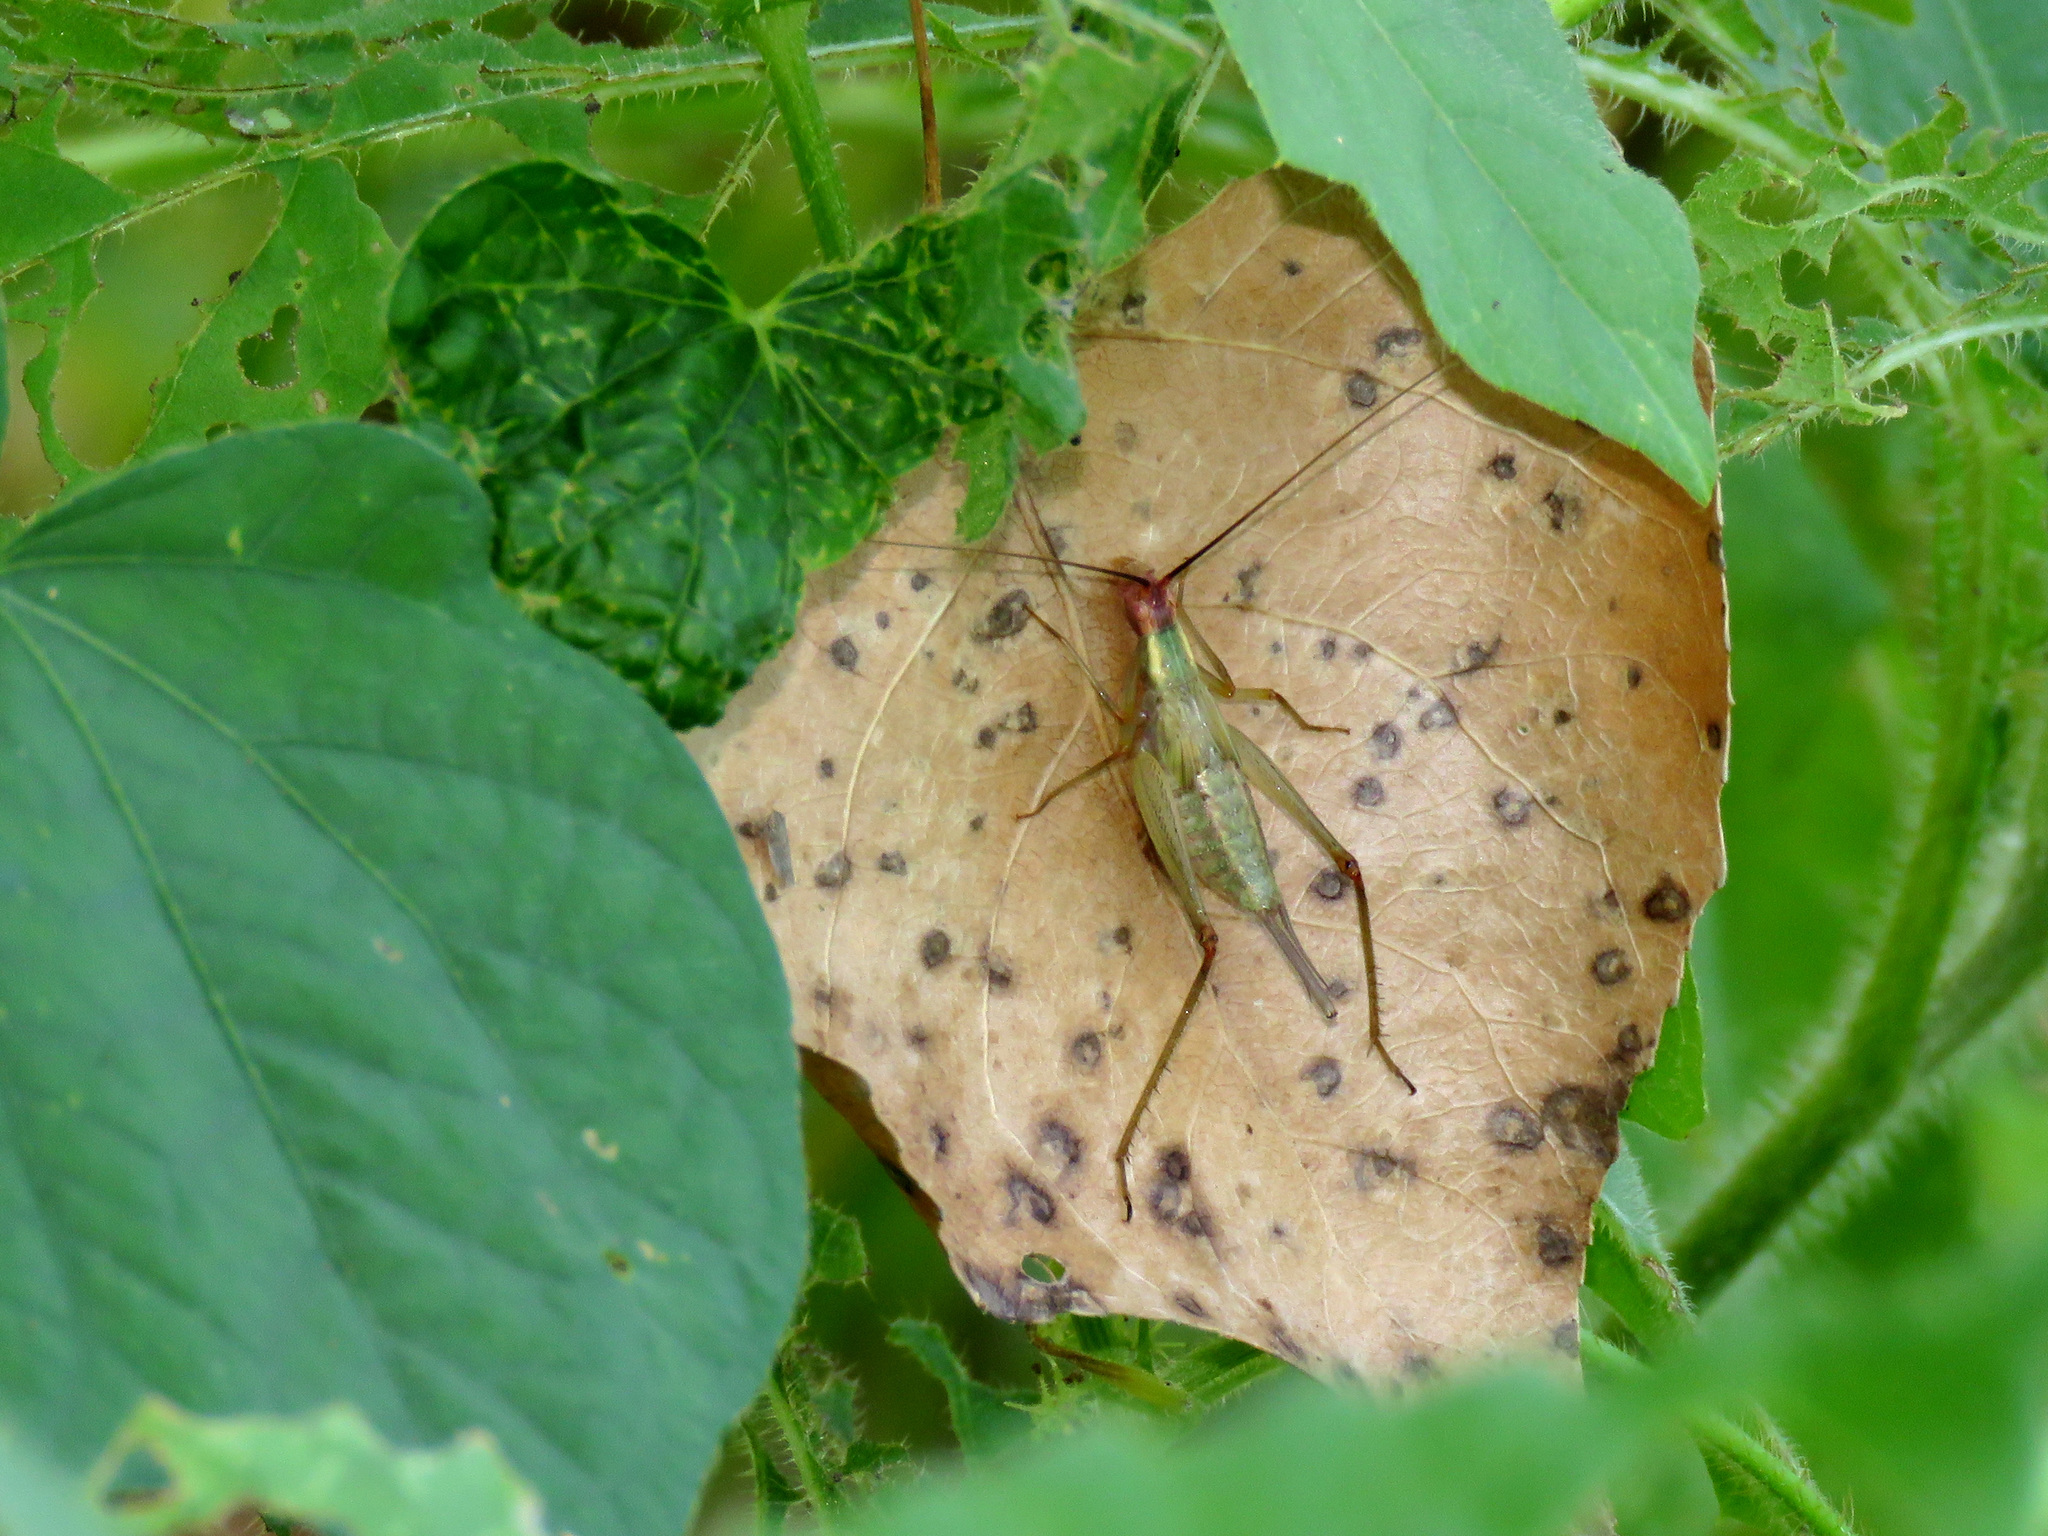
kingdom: Animalia
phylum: Arthropoda
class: Insecta
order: Orthoptera
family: Gryllidae
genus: Oecanthus
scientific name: Oecanthus californicus
